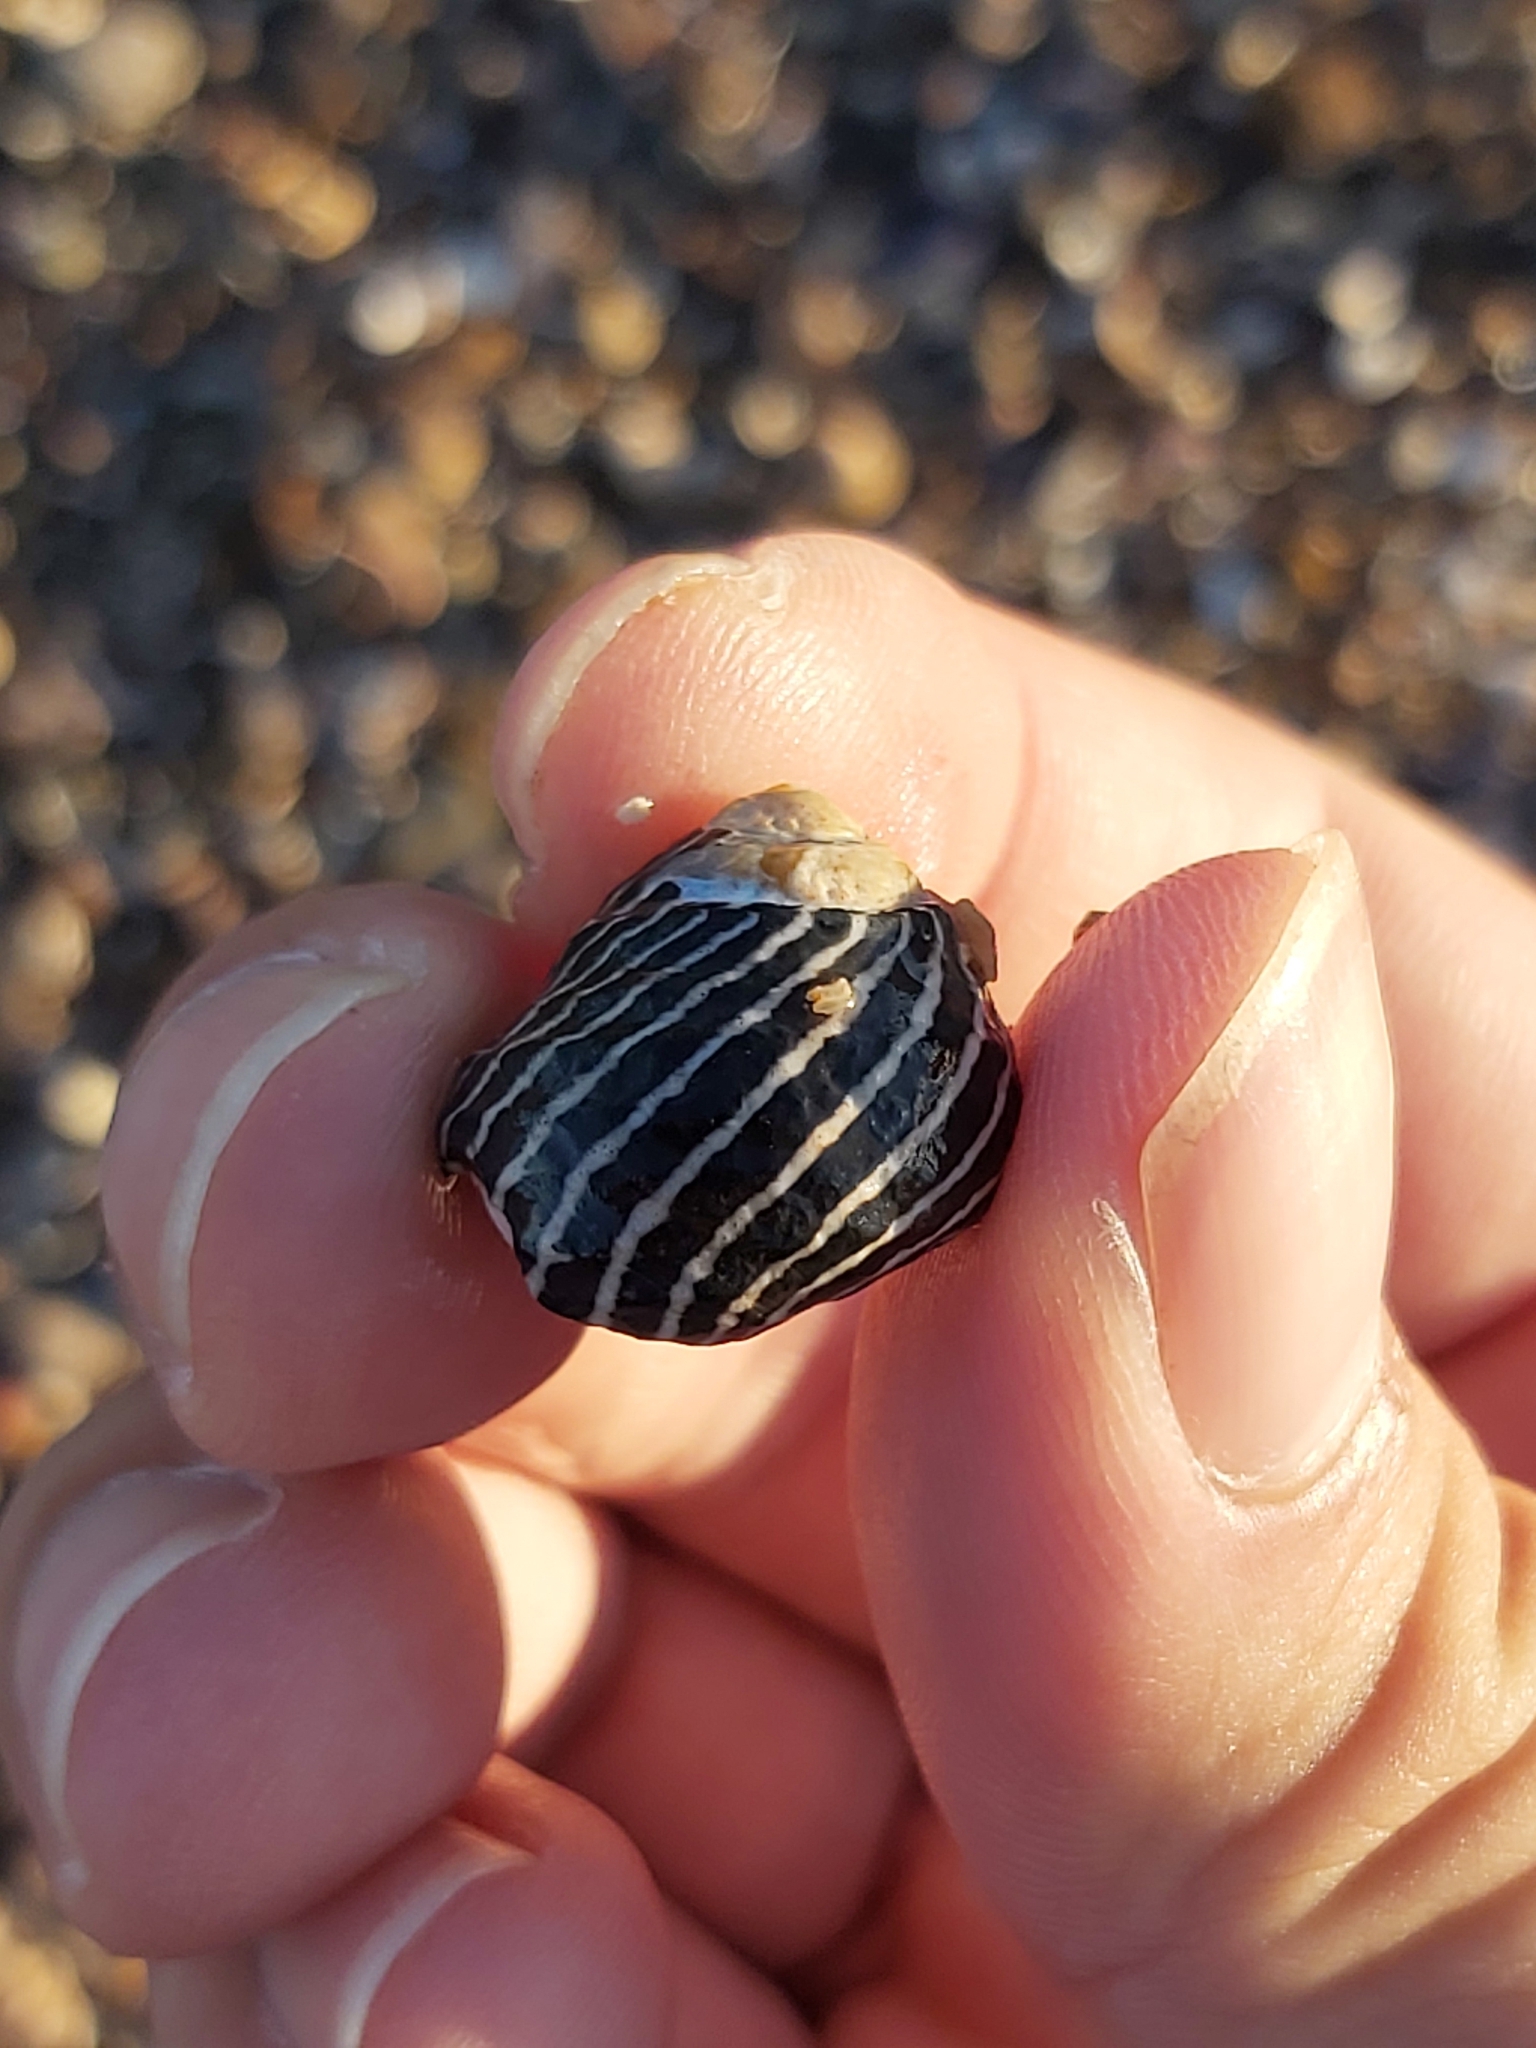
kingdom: Animalia
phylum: Mollusca
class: Gastropoda
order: Trochida
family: Trochidae
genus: Austrocochlea
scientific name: Austrocochlea porcata
